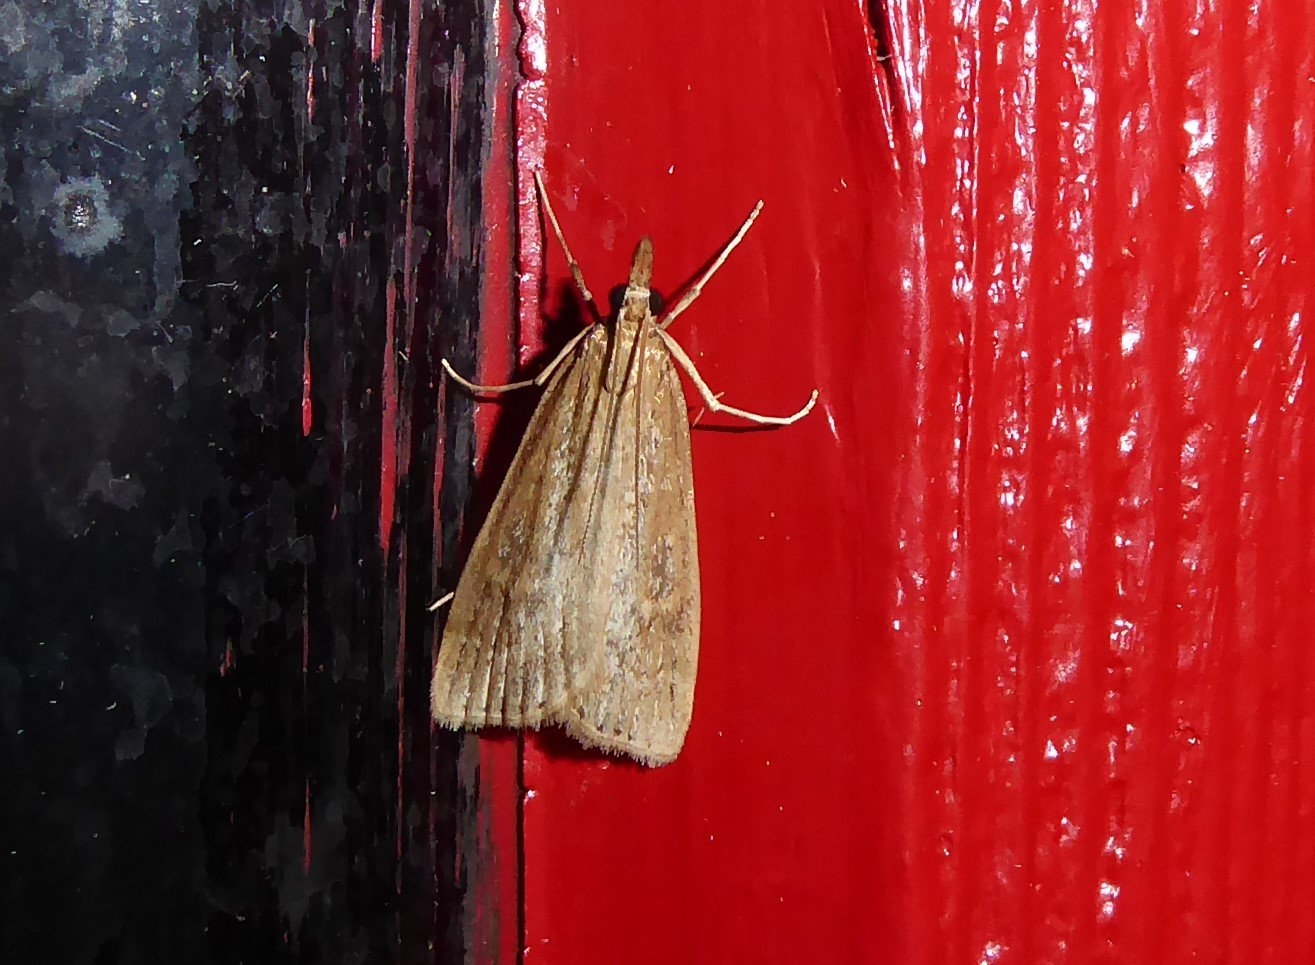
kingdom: Animalia
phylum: Arthropoda
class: Insecta
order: Lepidoptera
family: Crambidae
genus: Eudonia
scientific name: Eudonia octophora
